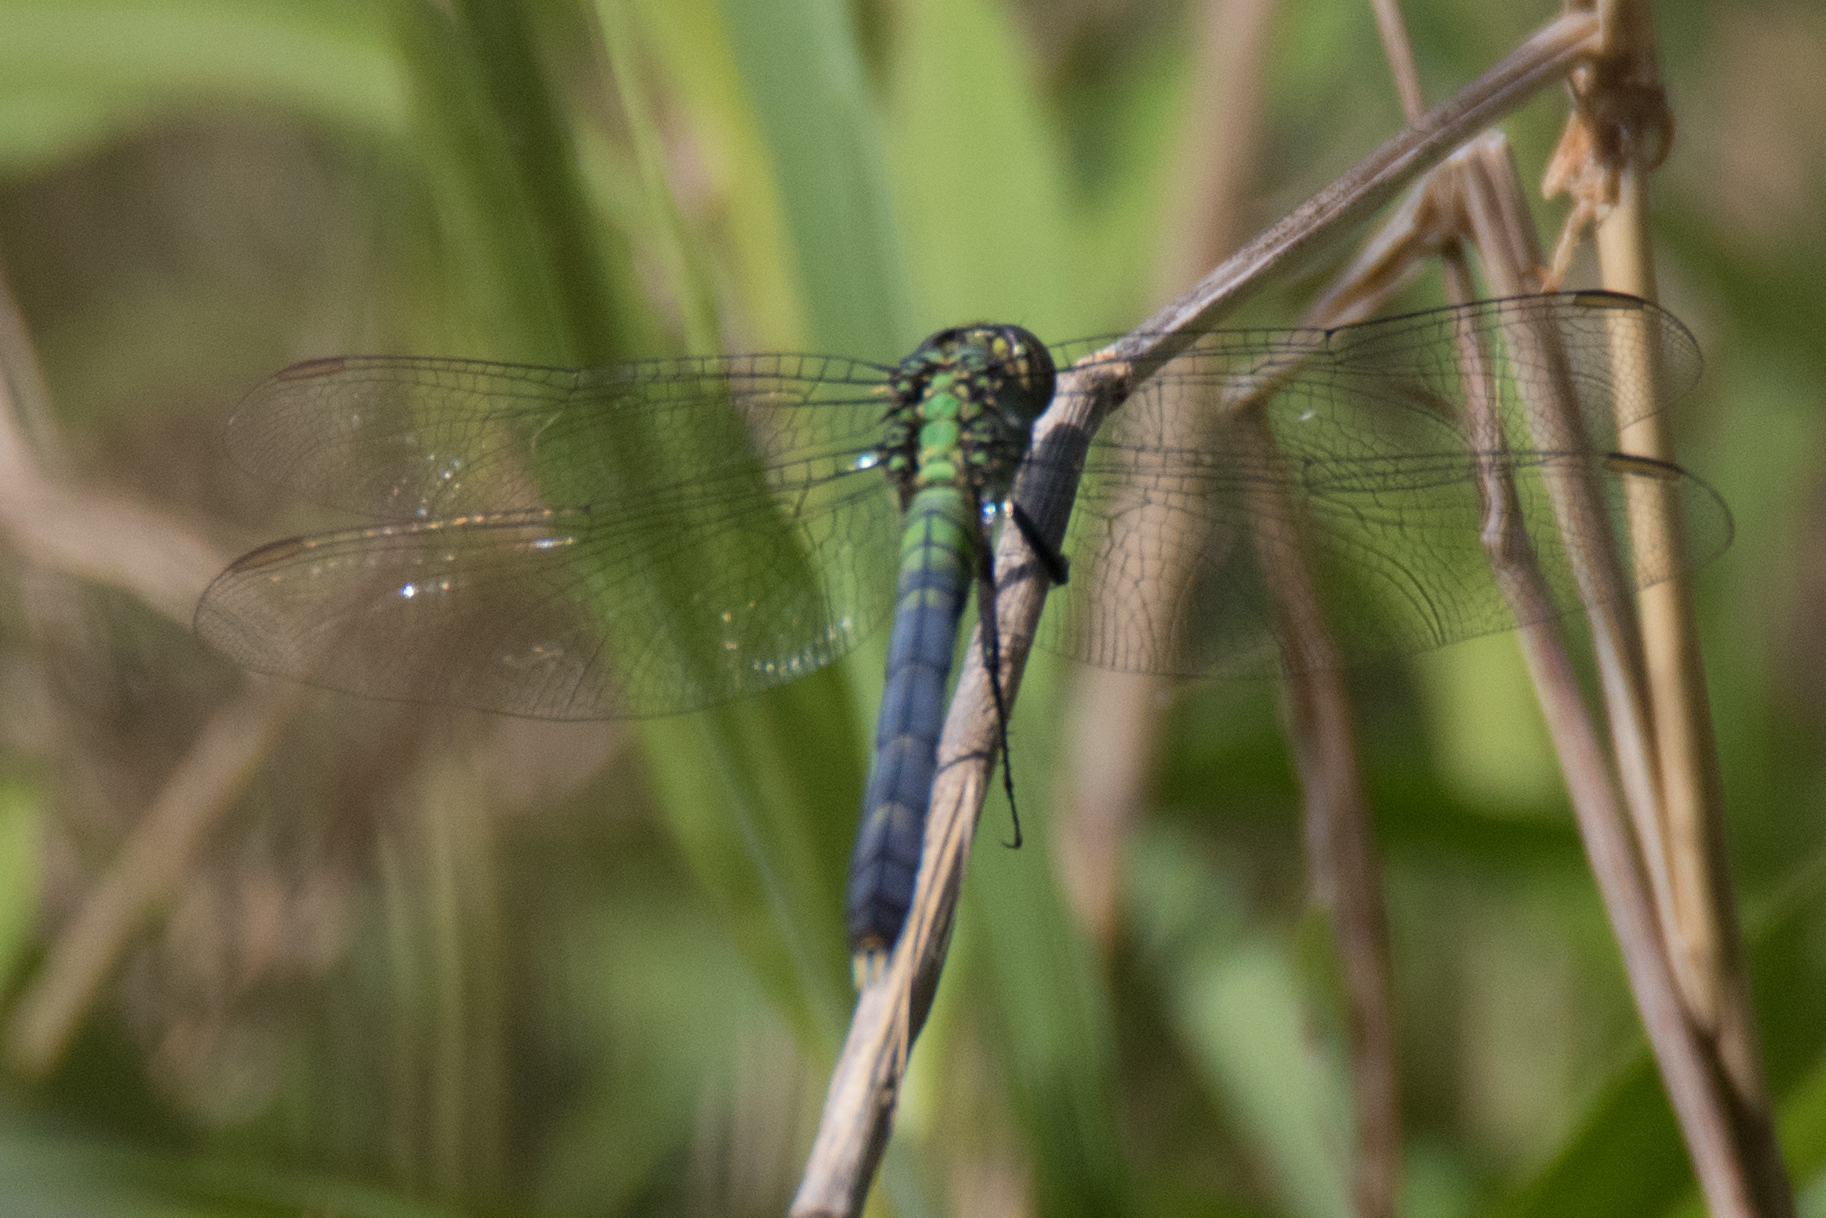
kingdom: Animalia
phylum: Arthropoda
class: Insecta
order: Odonata
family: Libellulidae
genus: Erythemis
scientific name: Erythemis simplicicollis
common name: Eastern pondhawk
